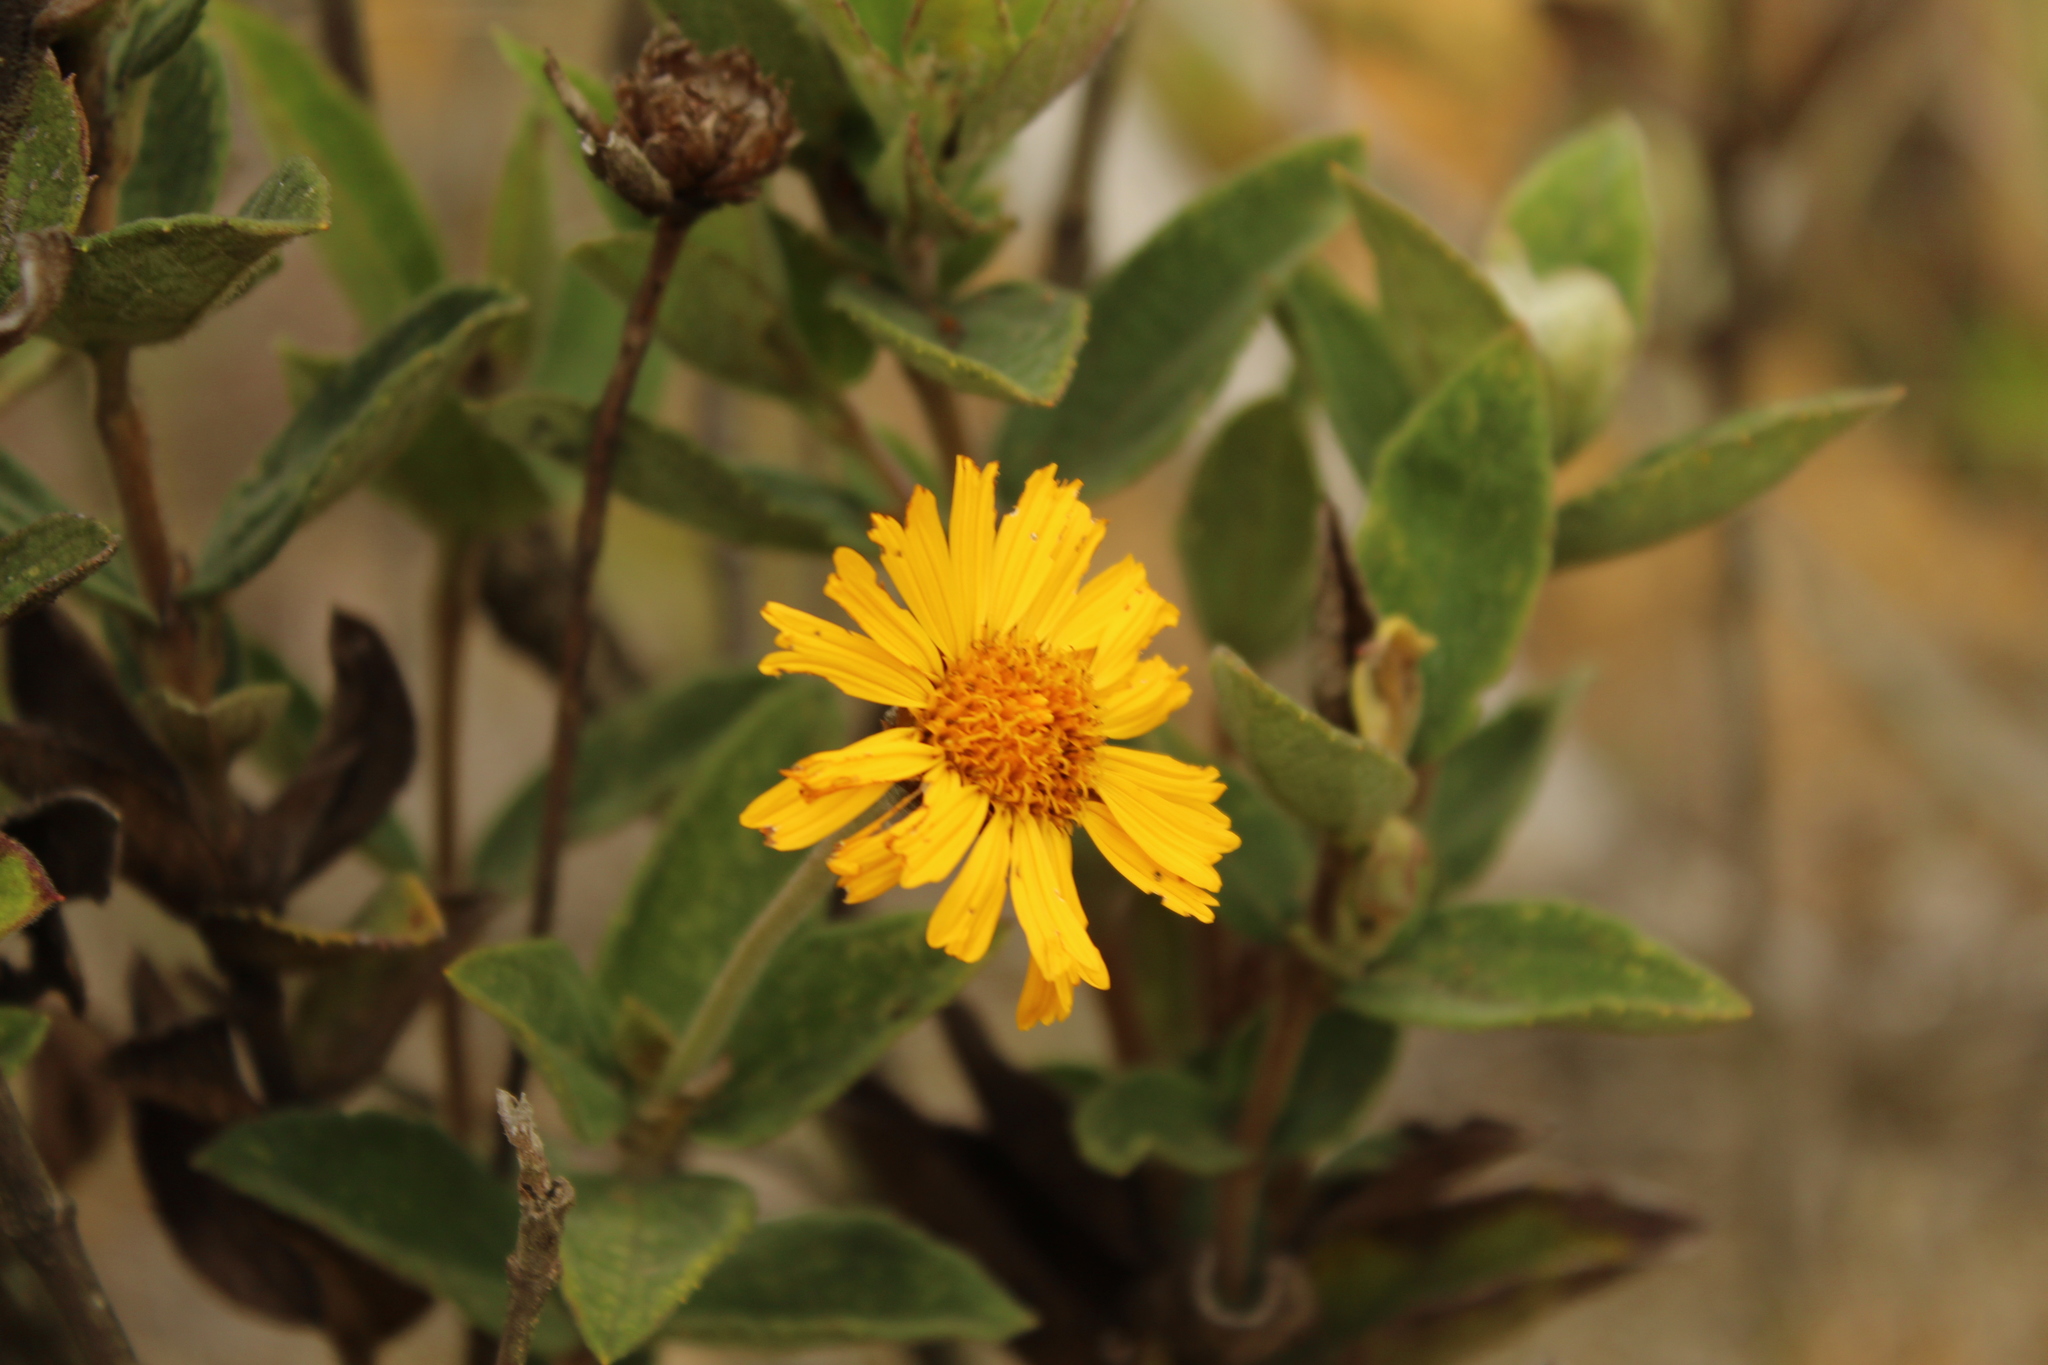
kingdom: Plantae
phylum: Tracheophyta
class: Magnoliopsida
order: Asterales
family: Asteraceae
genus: Calea
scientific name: Calea peruviana
